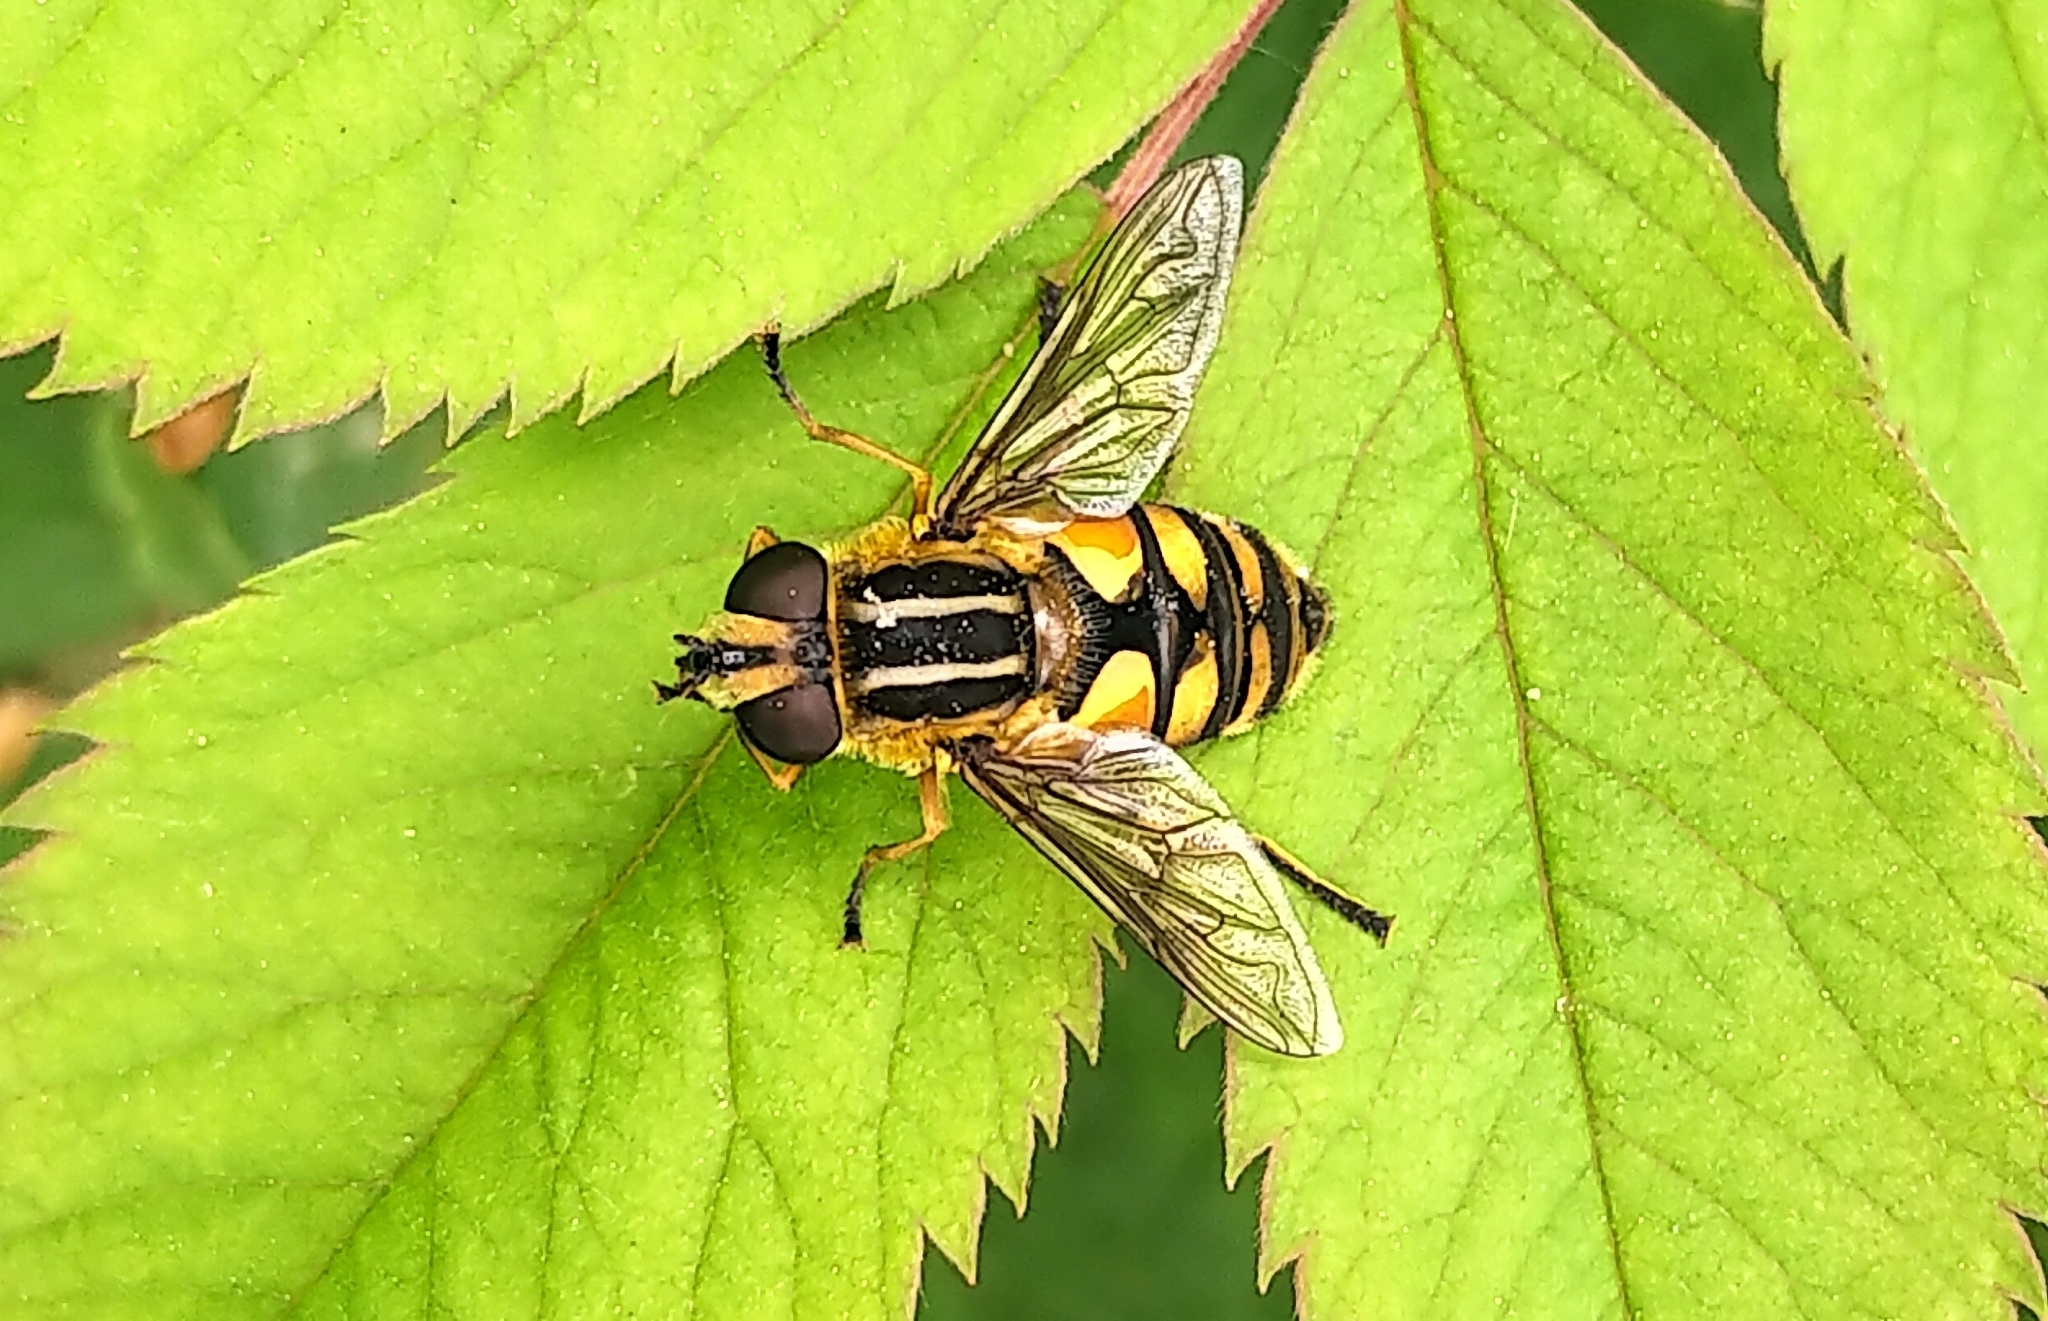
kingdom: Animalia
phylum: Arthropoda
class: Insecta
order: Diptera
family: Syrphidae
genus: Helophilus
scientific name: Helophilus hybridus
